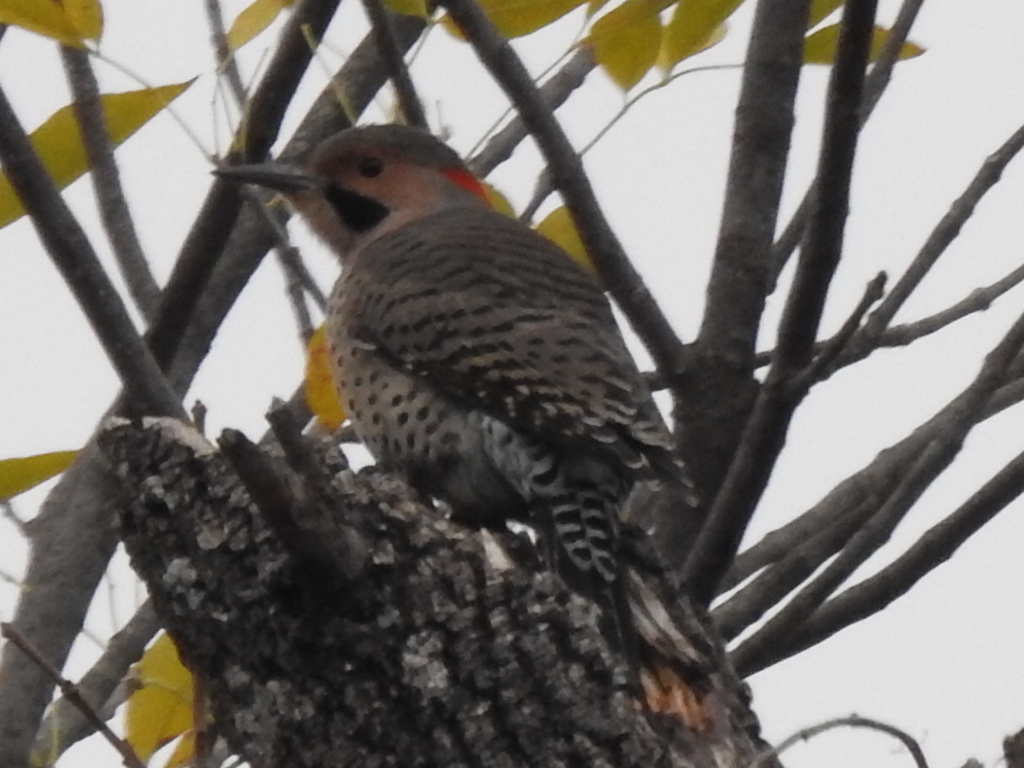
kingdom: Animalia
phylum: Chordata
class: Aves
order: Piciformes
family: Picidae
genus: Colaptes
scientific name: Colaptes auratus
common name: Northern flicker
